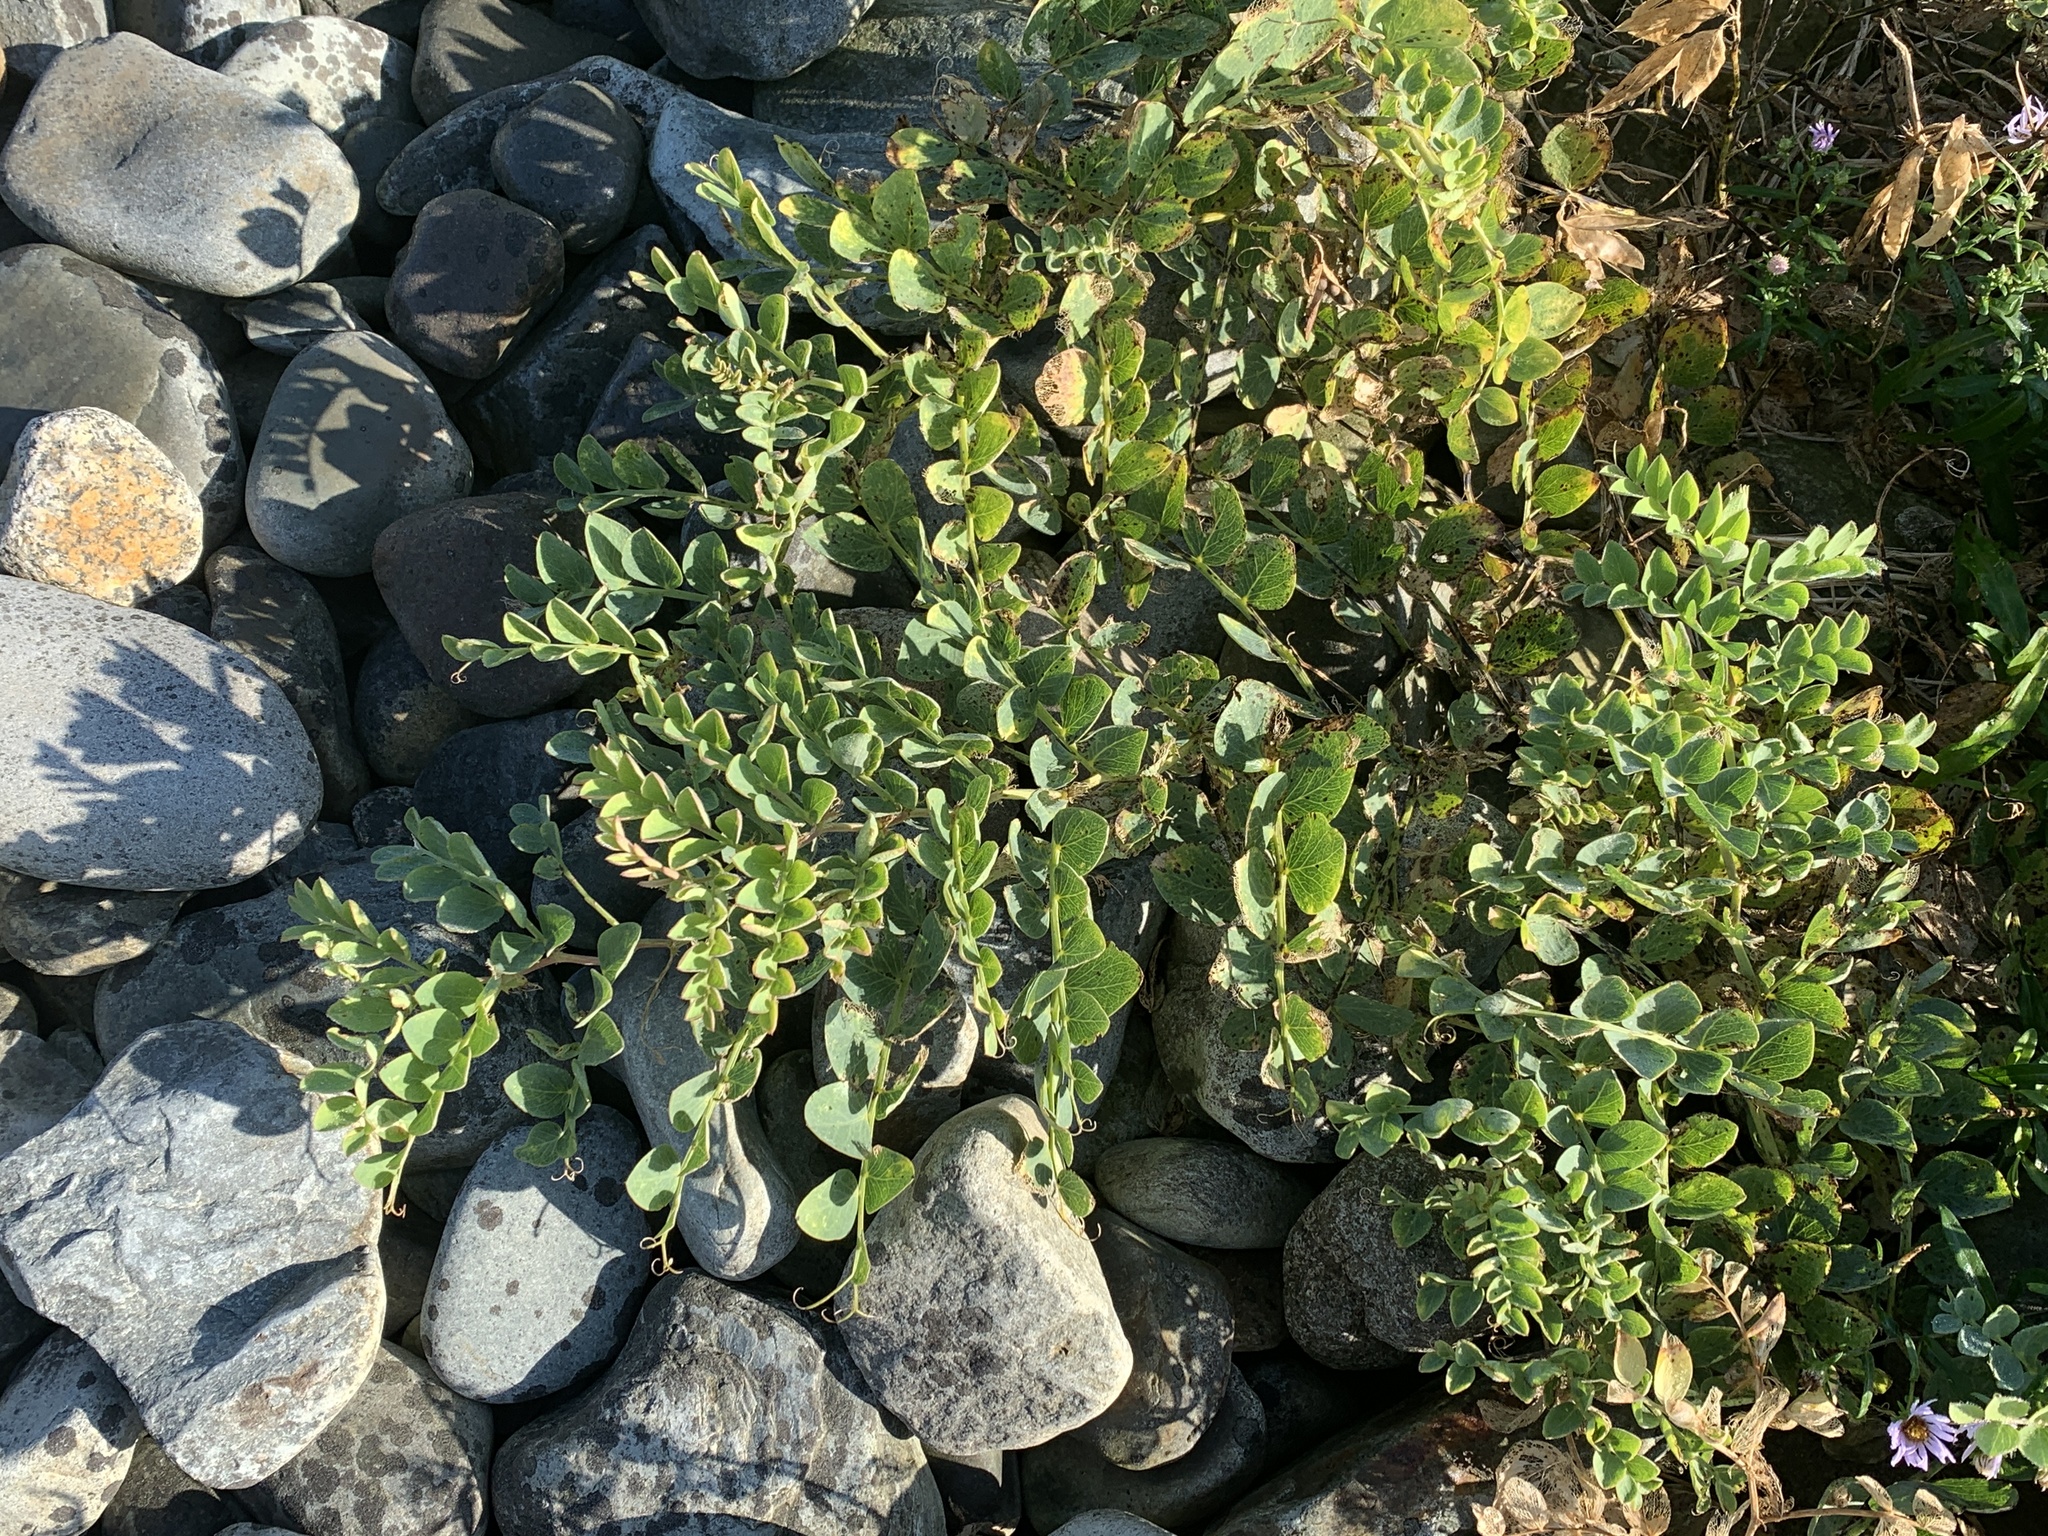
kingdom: Plantae
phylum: Tracheophyta
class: Magnoliopsida
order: Fabales
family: Fabaceae
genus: Lathyrus
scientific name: Lathyrus japonicus
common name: Sea pea
